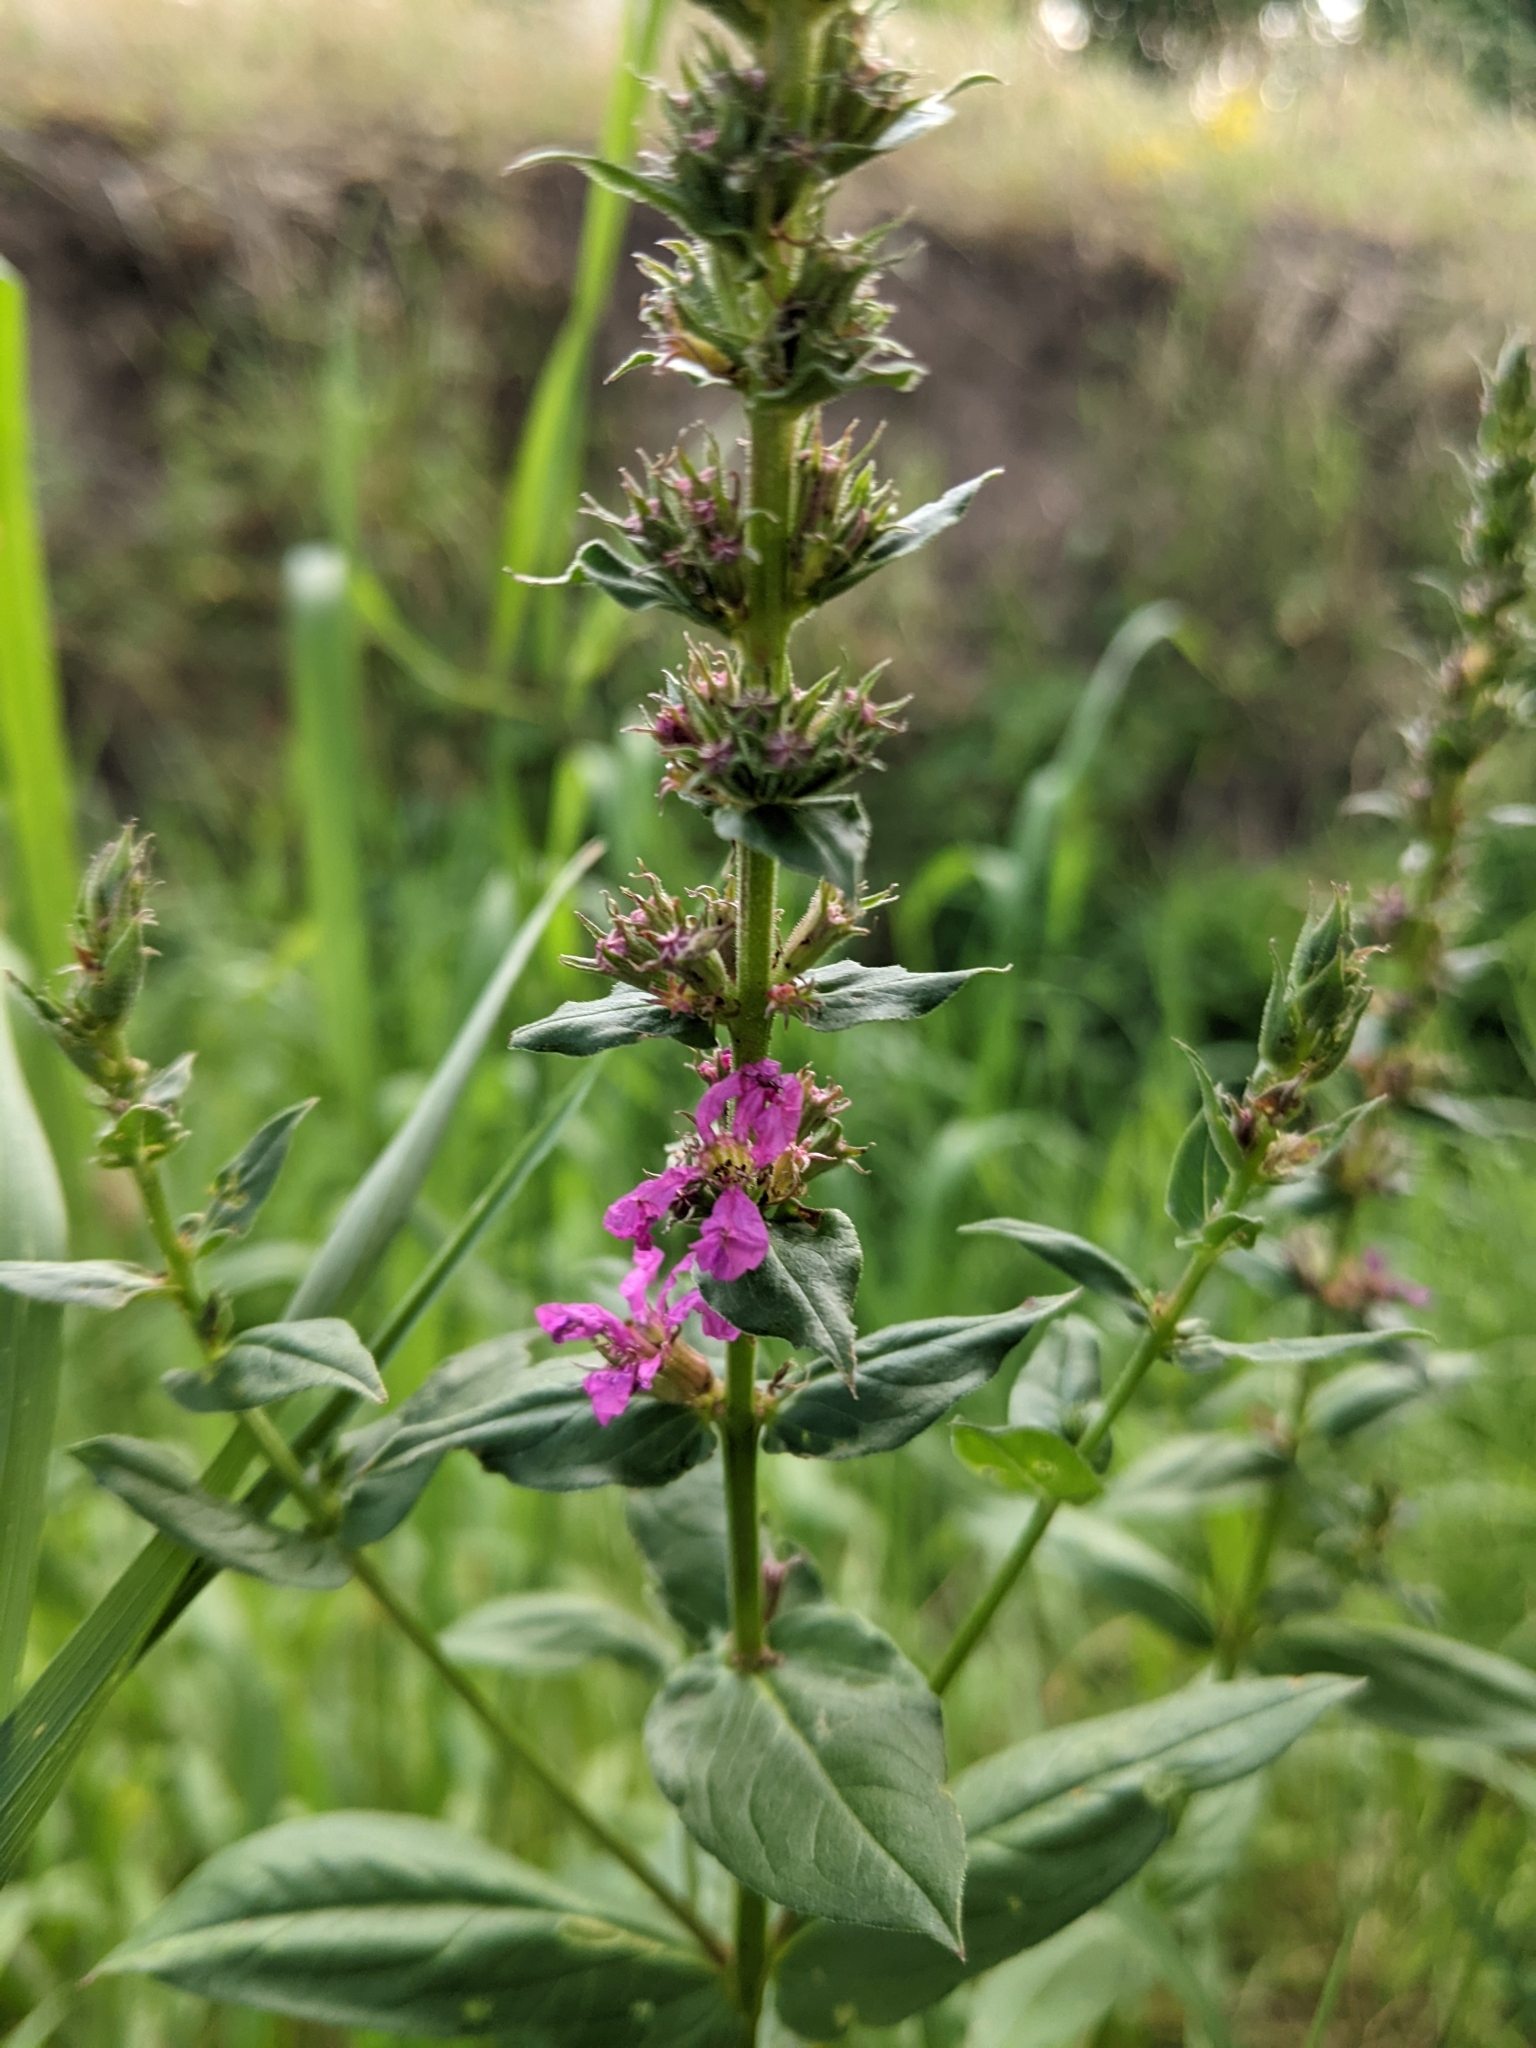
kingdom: Plantae
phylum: Tracheophyta
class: Magnoliopsida
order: Myrtales
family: Lythraceae
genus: Lythrum
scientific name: Lythrum salicaria
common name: Purple loosestrife
